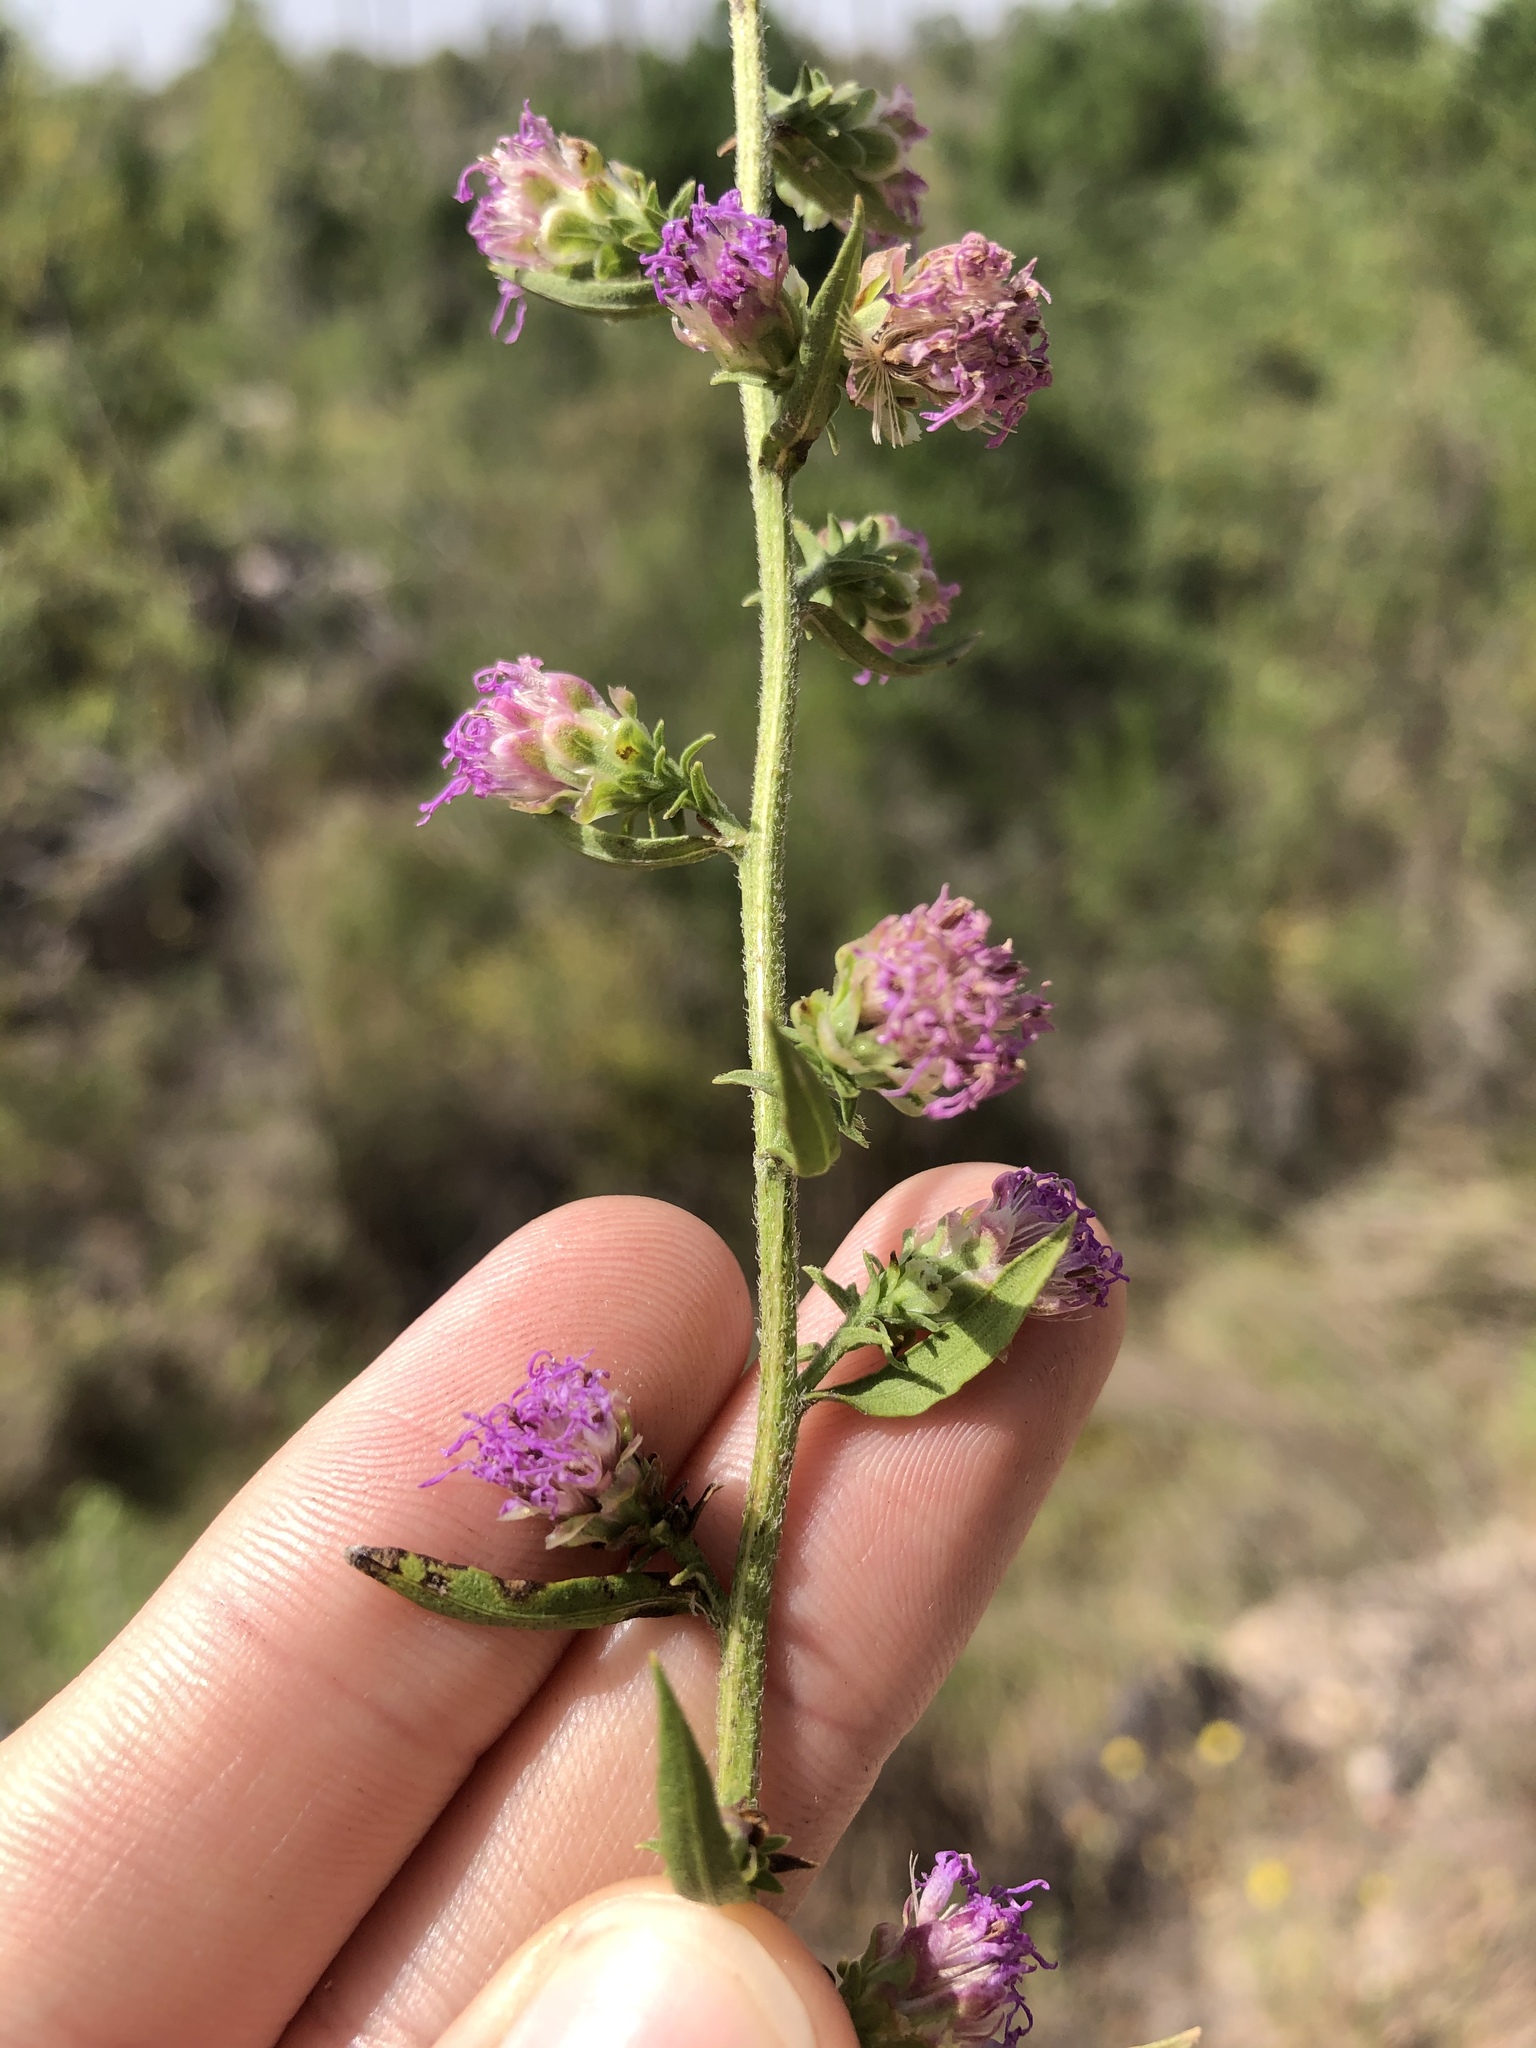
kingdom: Plantae
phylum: Tracheophyta
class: Magnoliopsida
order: Asterales
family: Asteraceae
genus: Liatris
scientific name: Liatris aspera
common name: Lacerate blazing-star
